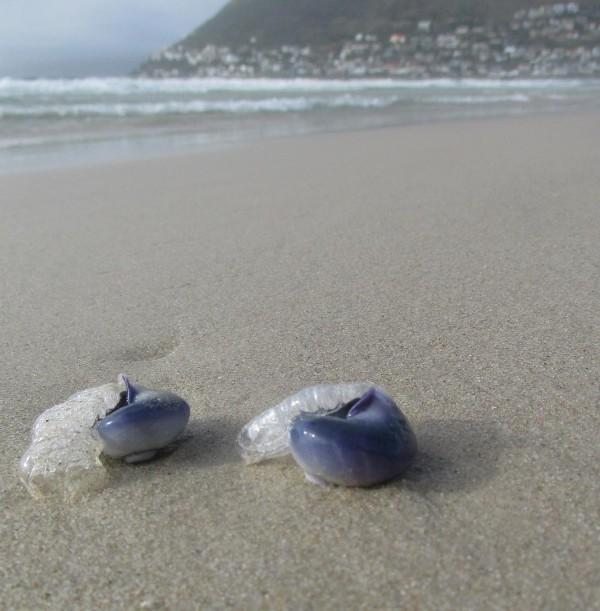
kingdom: Animalia
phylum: Mollusca
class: Gastropoda
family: Epitoniidae
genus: Janthina
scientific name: Janthina janthina
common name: Common janthina
